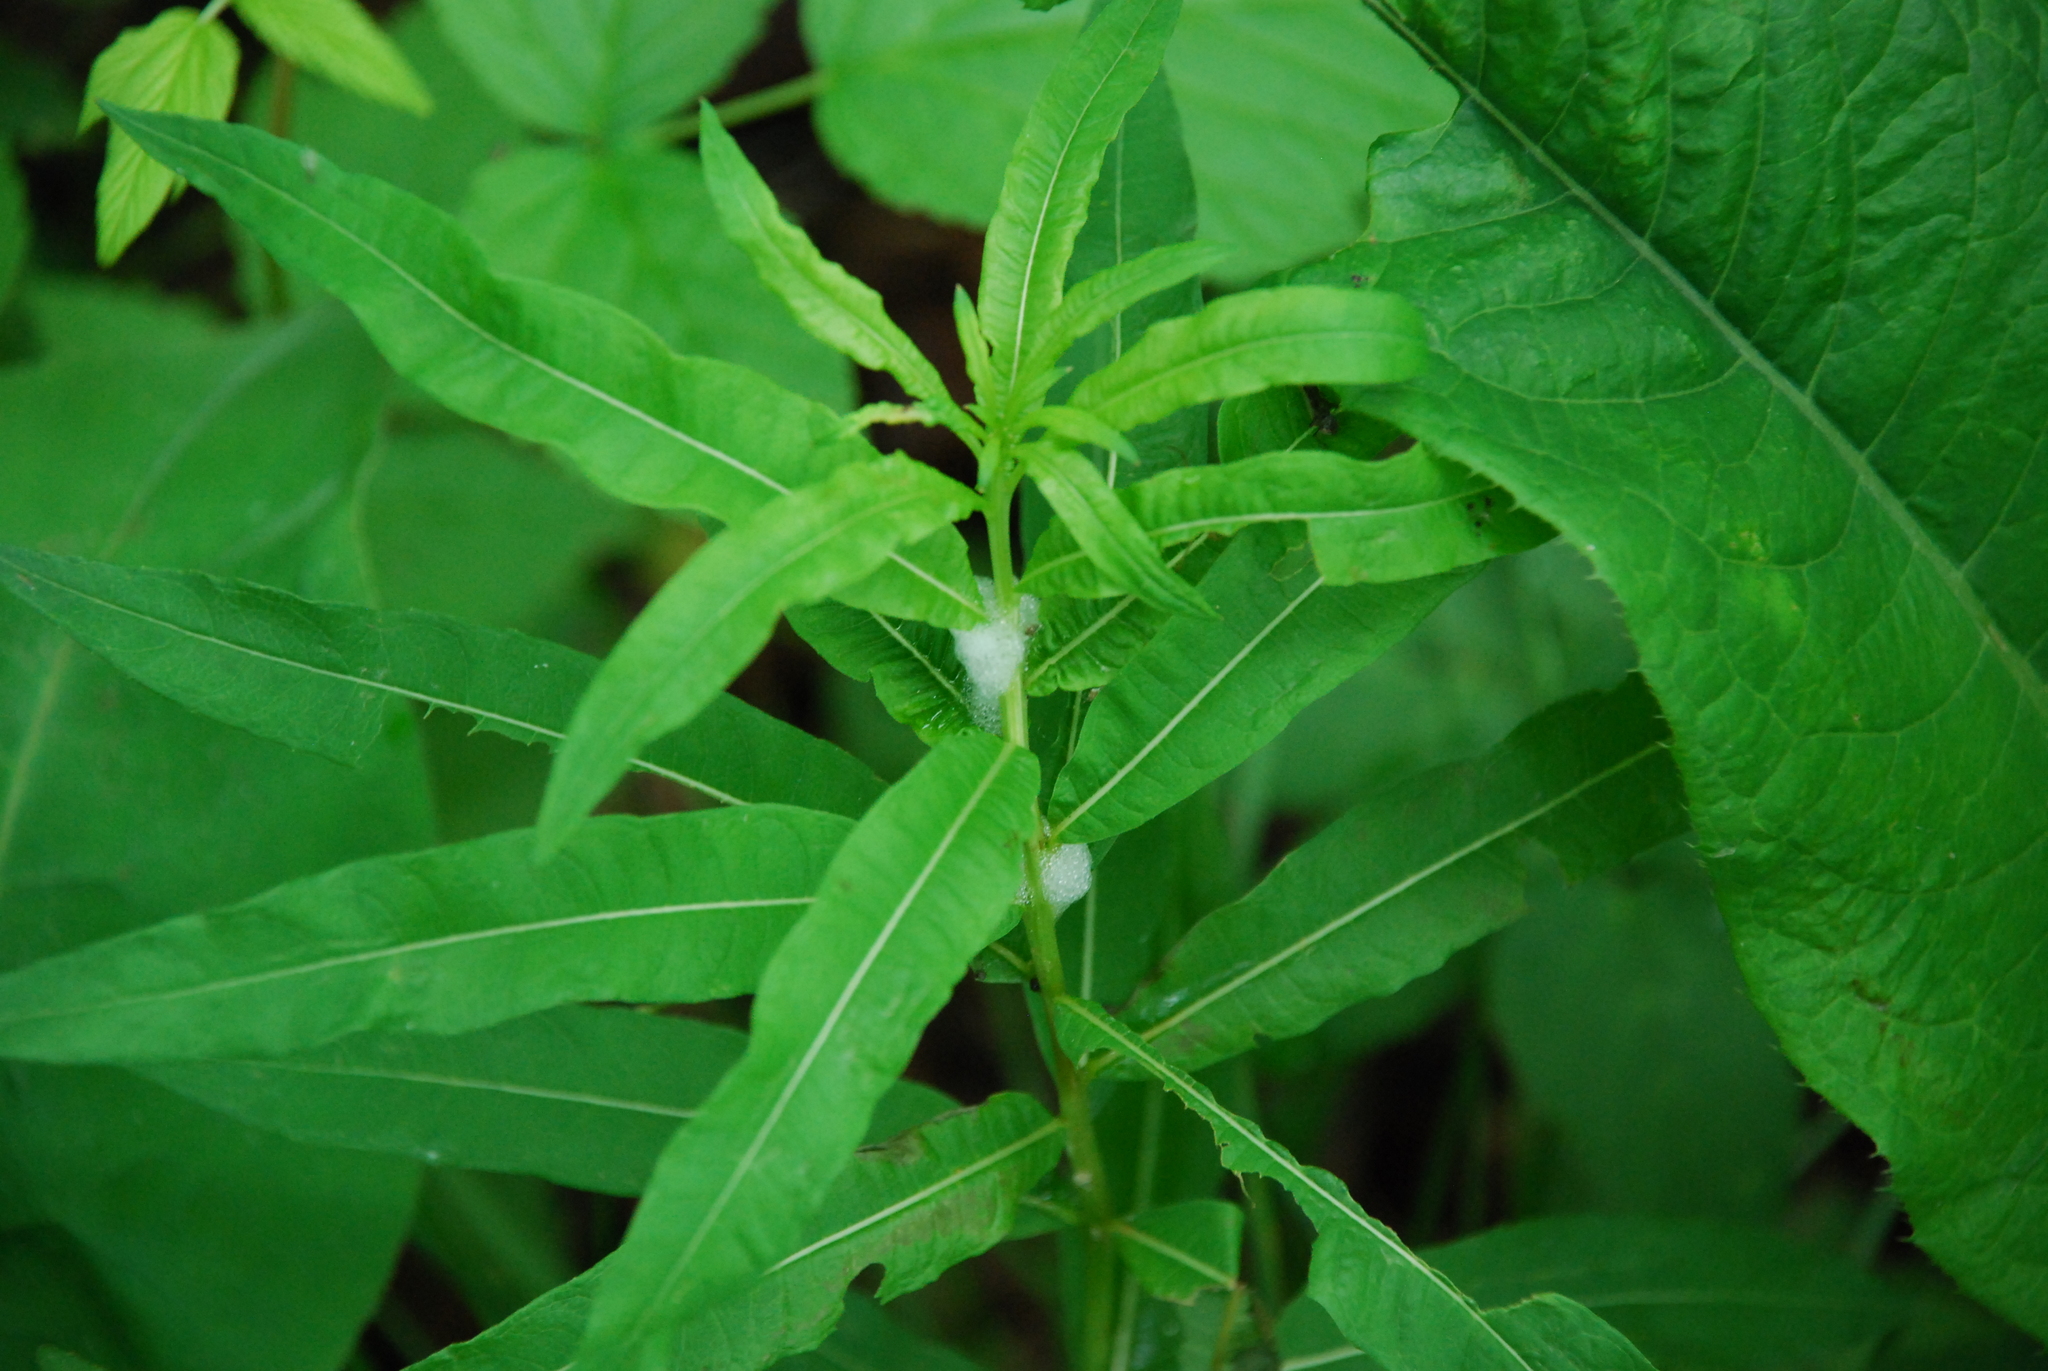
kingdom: Plantae
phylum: Tracheophyta
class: Magnoliopsida
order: Myrtales
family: Onagraceae
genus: Chamaenerion
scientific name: Chamaenerion angustifolium
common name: Fireweed
